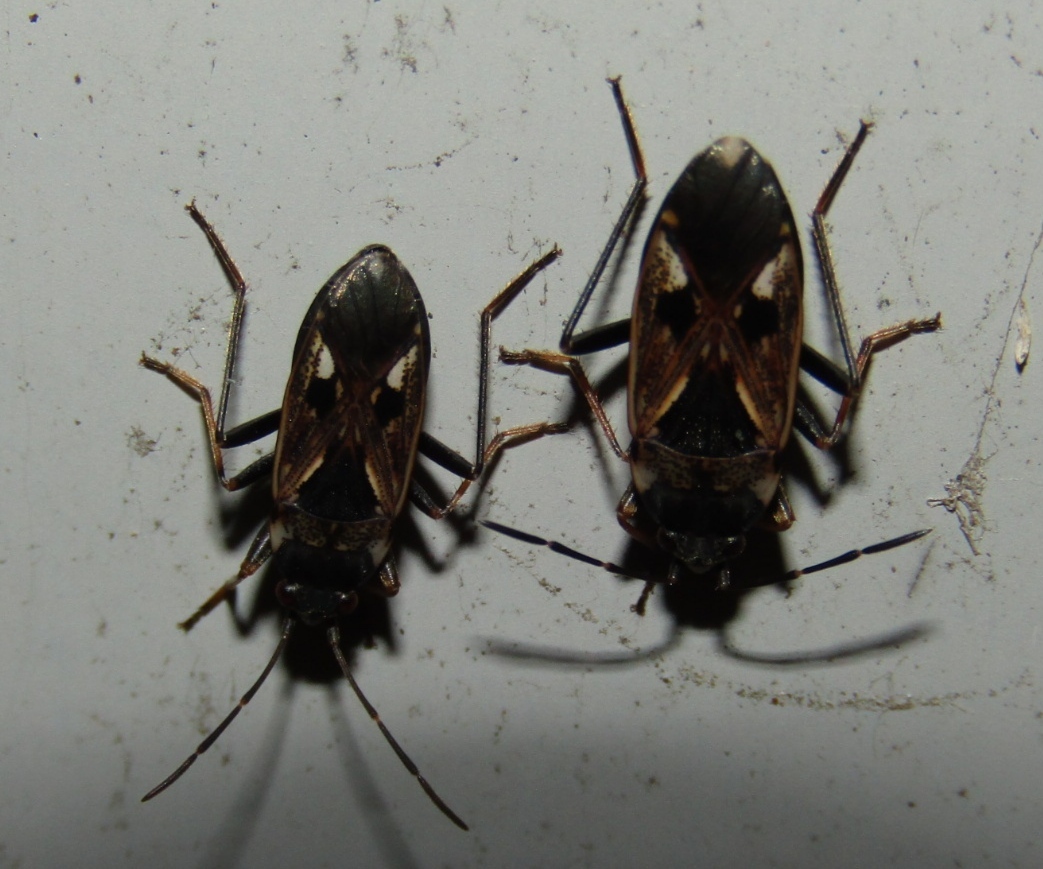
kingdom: Animalia
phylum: Arthropoda
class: Insecta
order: Hemiptera
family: Rhyparochromidae
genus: Rhyparochromus
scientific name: Rhyparochromus vulgaris
